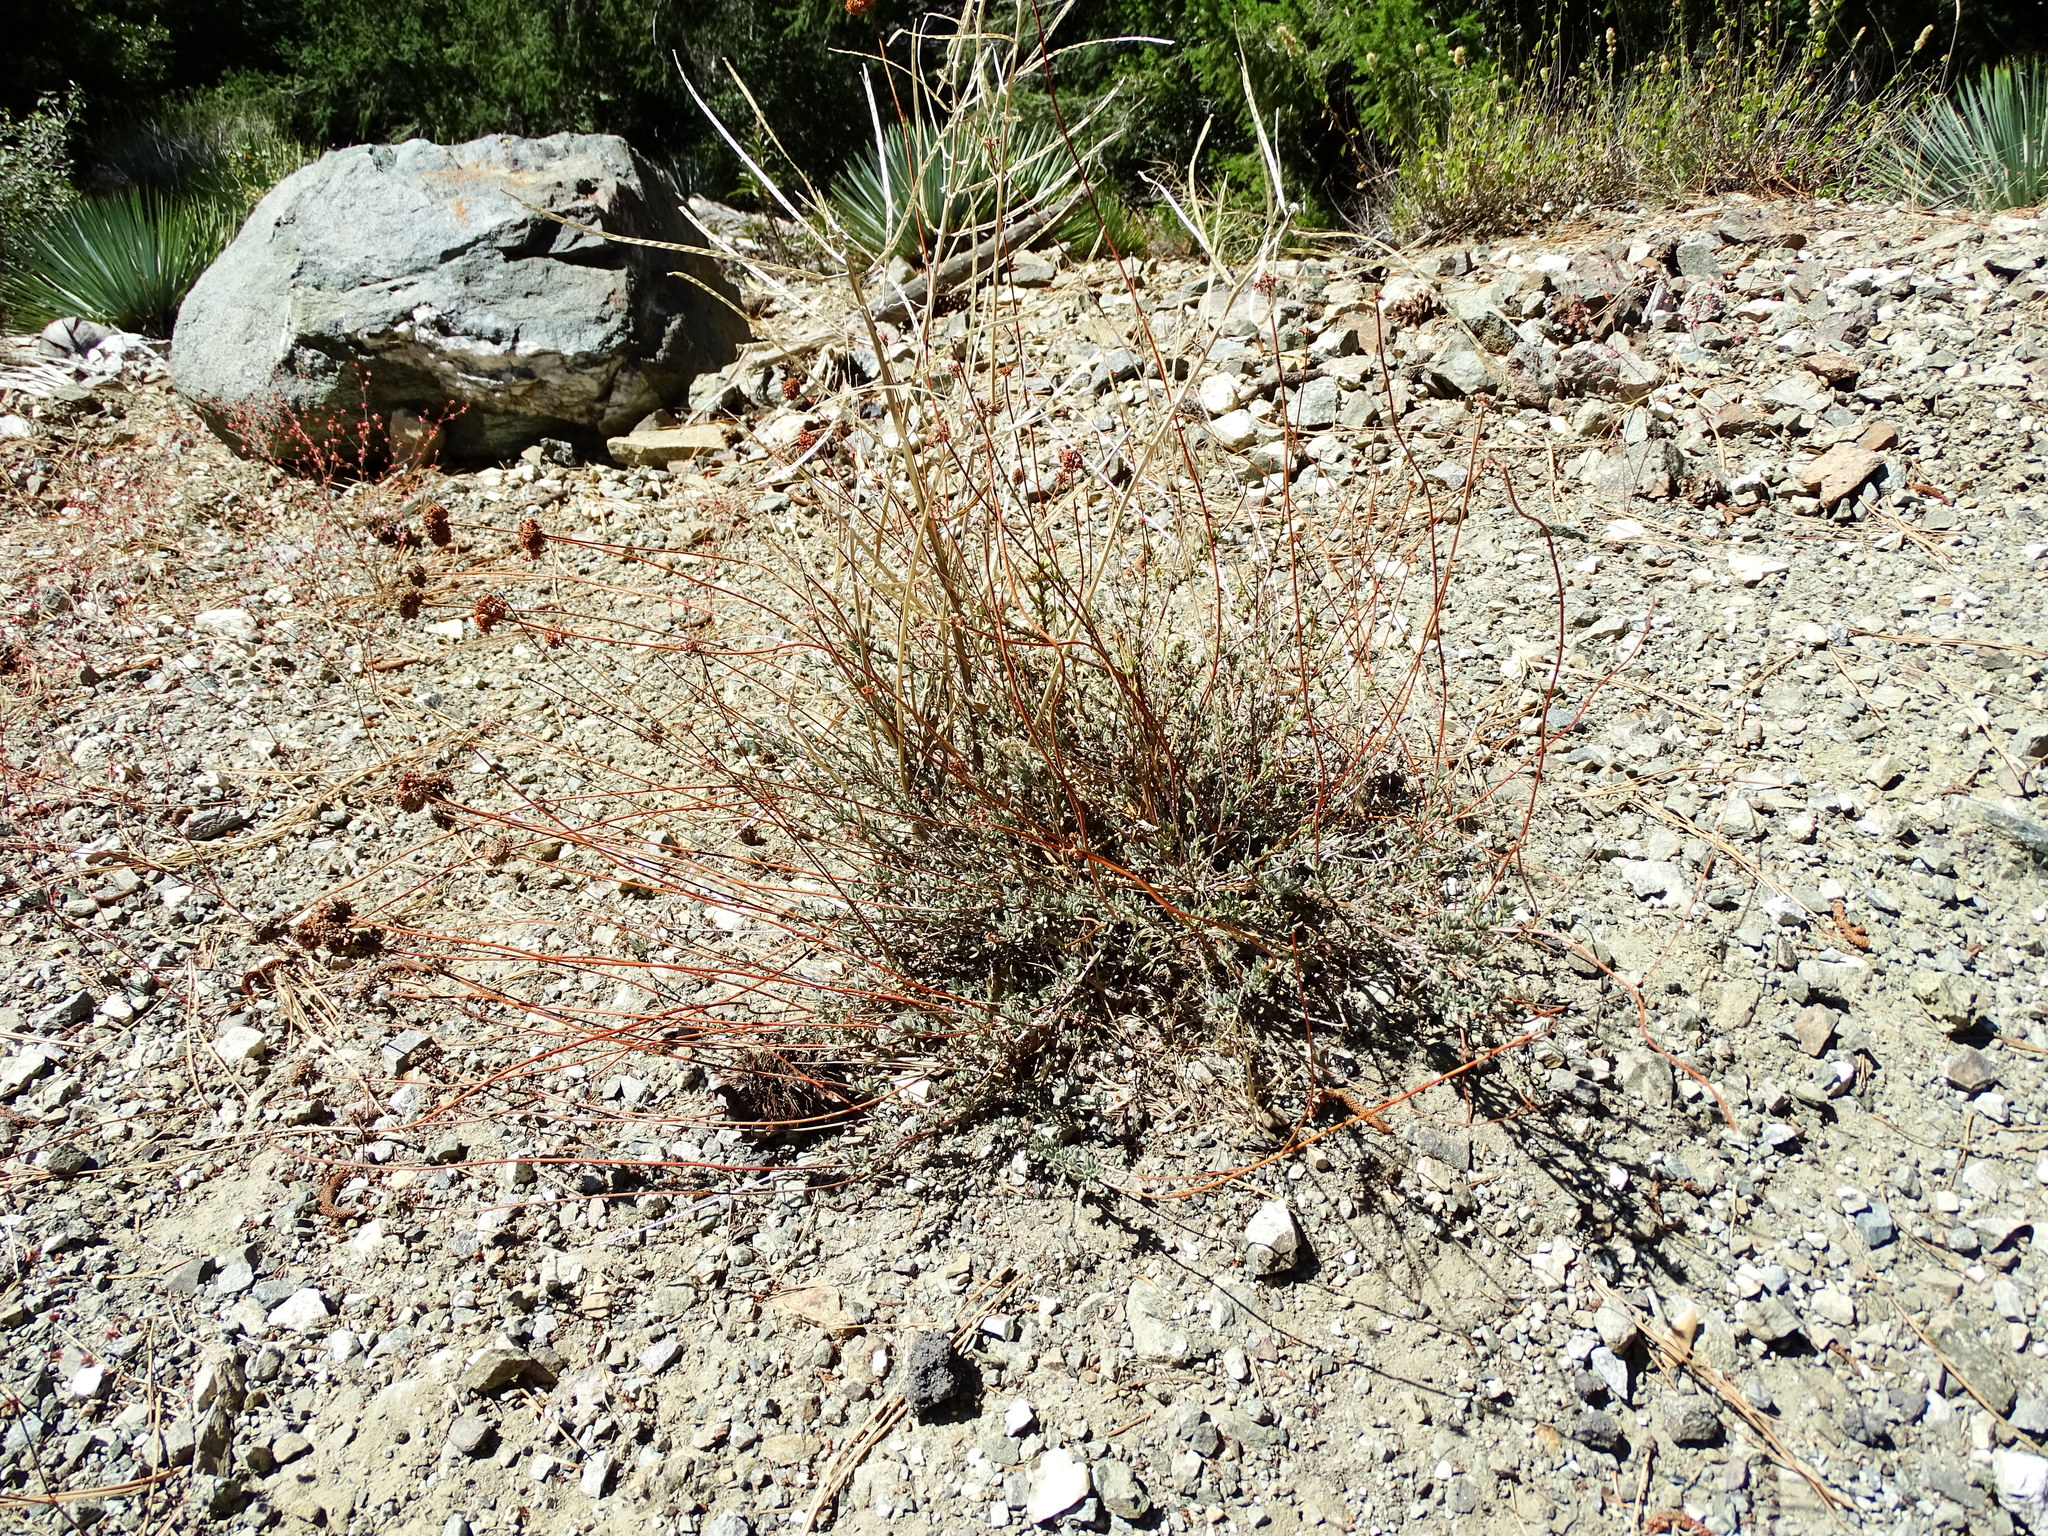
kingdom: Plantae
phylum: Tracheophyta
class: Magnoliopsida
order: Caryophyllales
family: Polygonaceae
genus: Eriogonum
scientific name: Eriogonum fasciculatum
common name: California wild buckwheat
